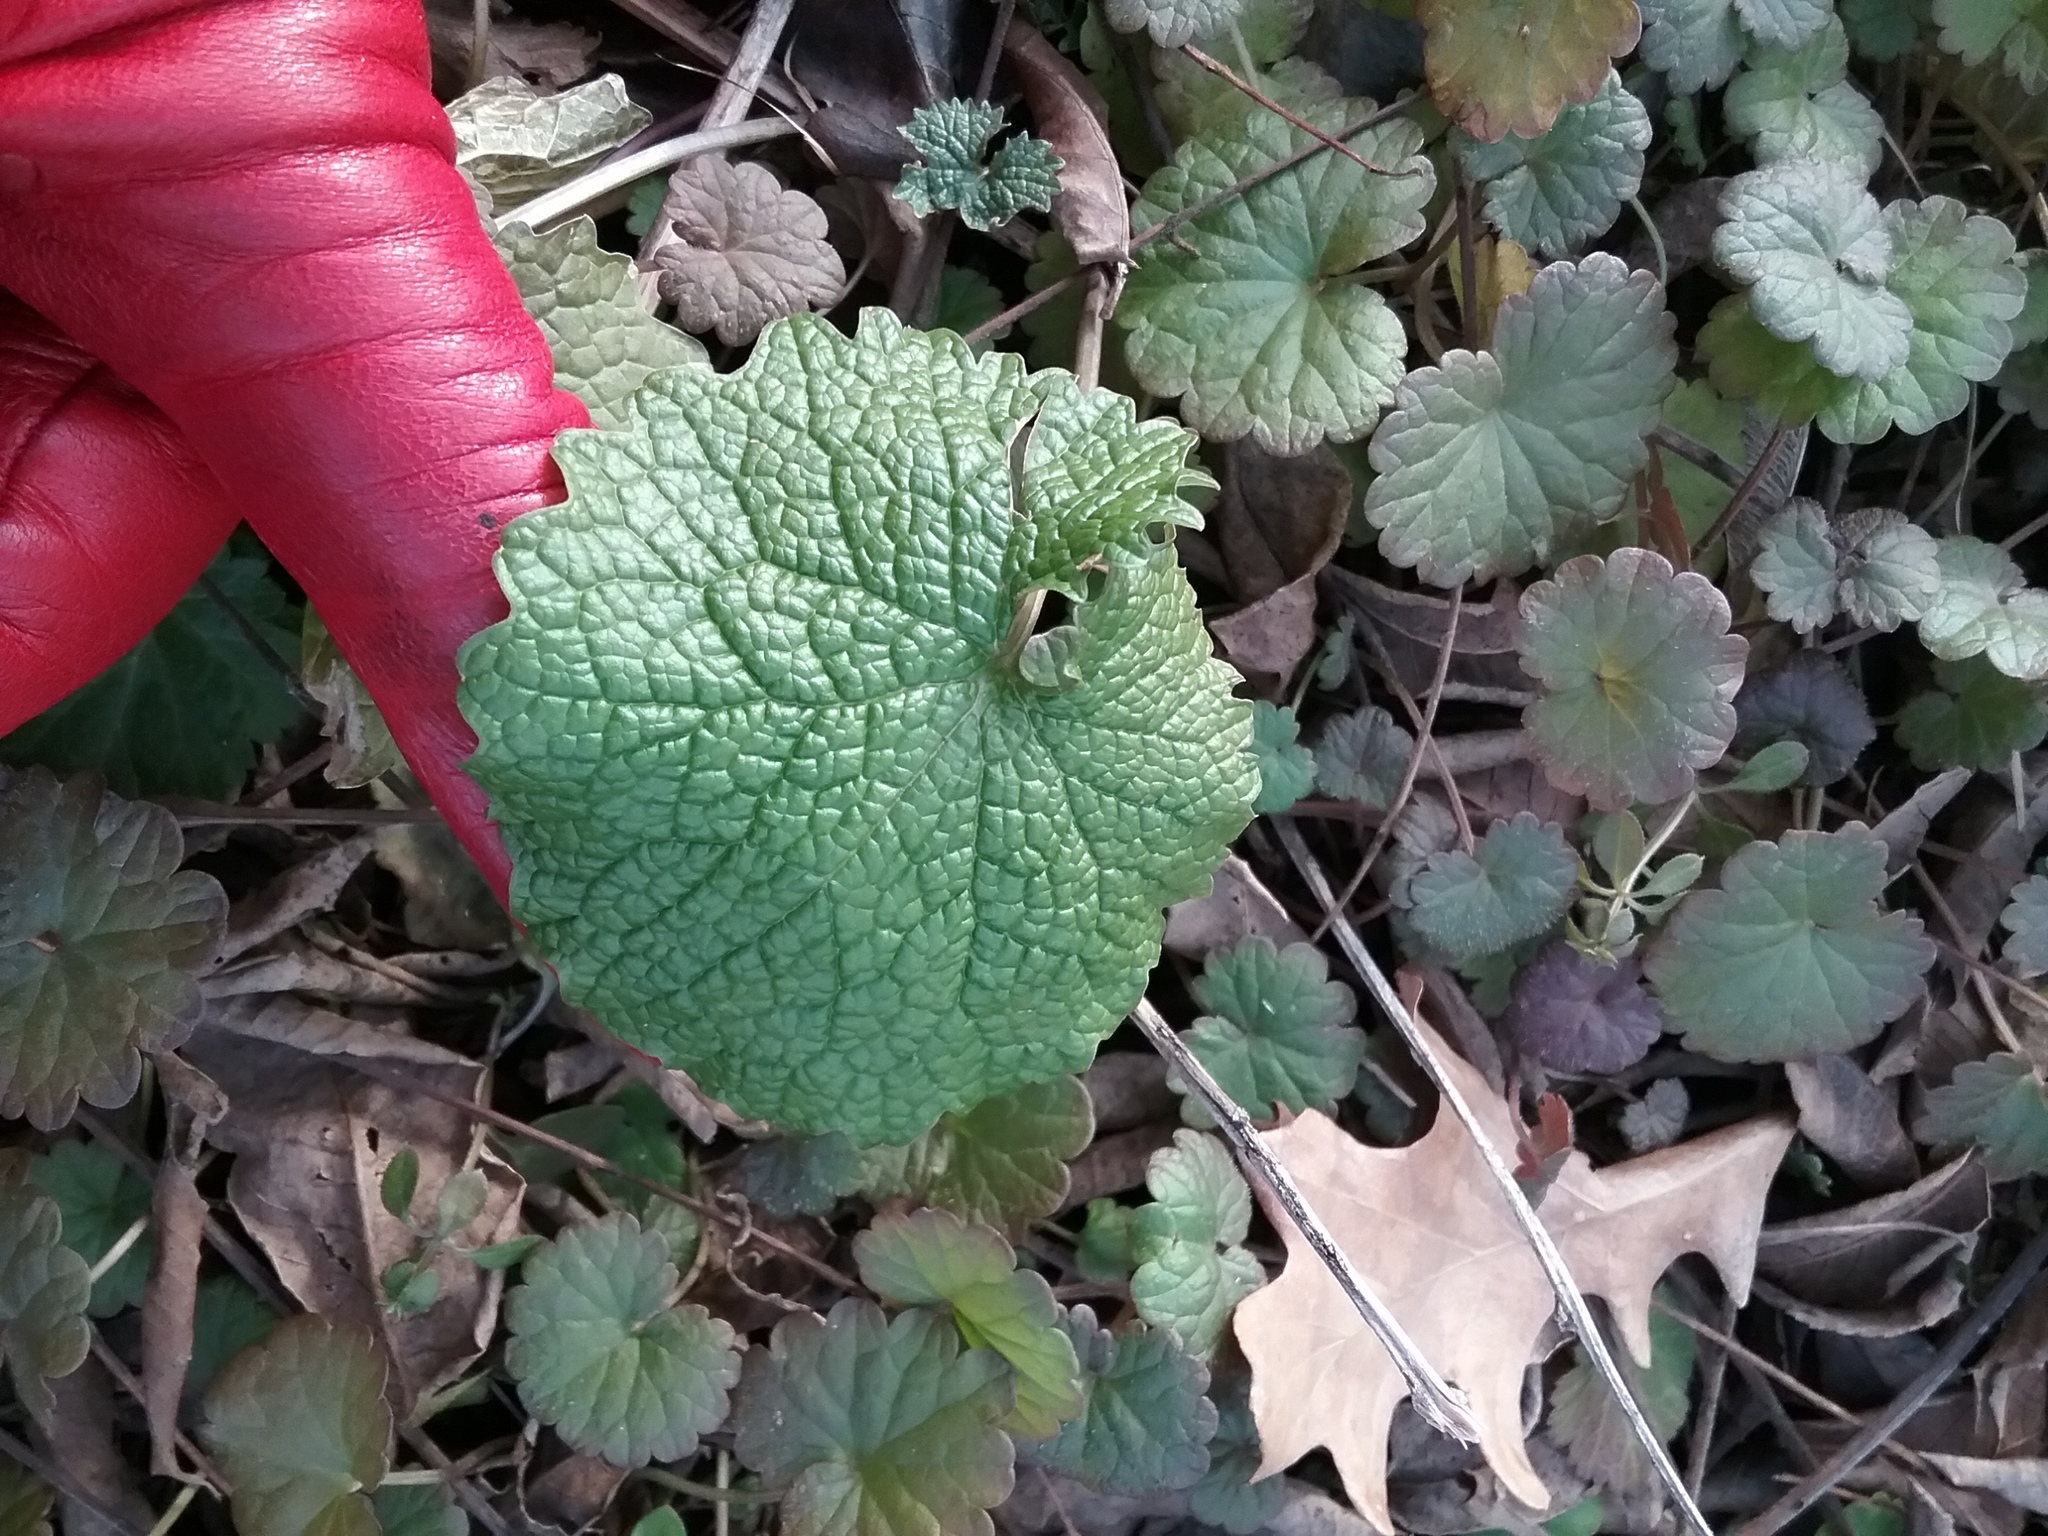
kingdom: Plantae
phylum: Tracheophyta
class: Magnoliopsida
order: Brassicales
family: Brassicaceae
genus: Alliaria
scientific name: Alliaria petiolata
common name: Garlic mustard
